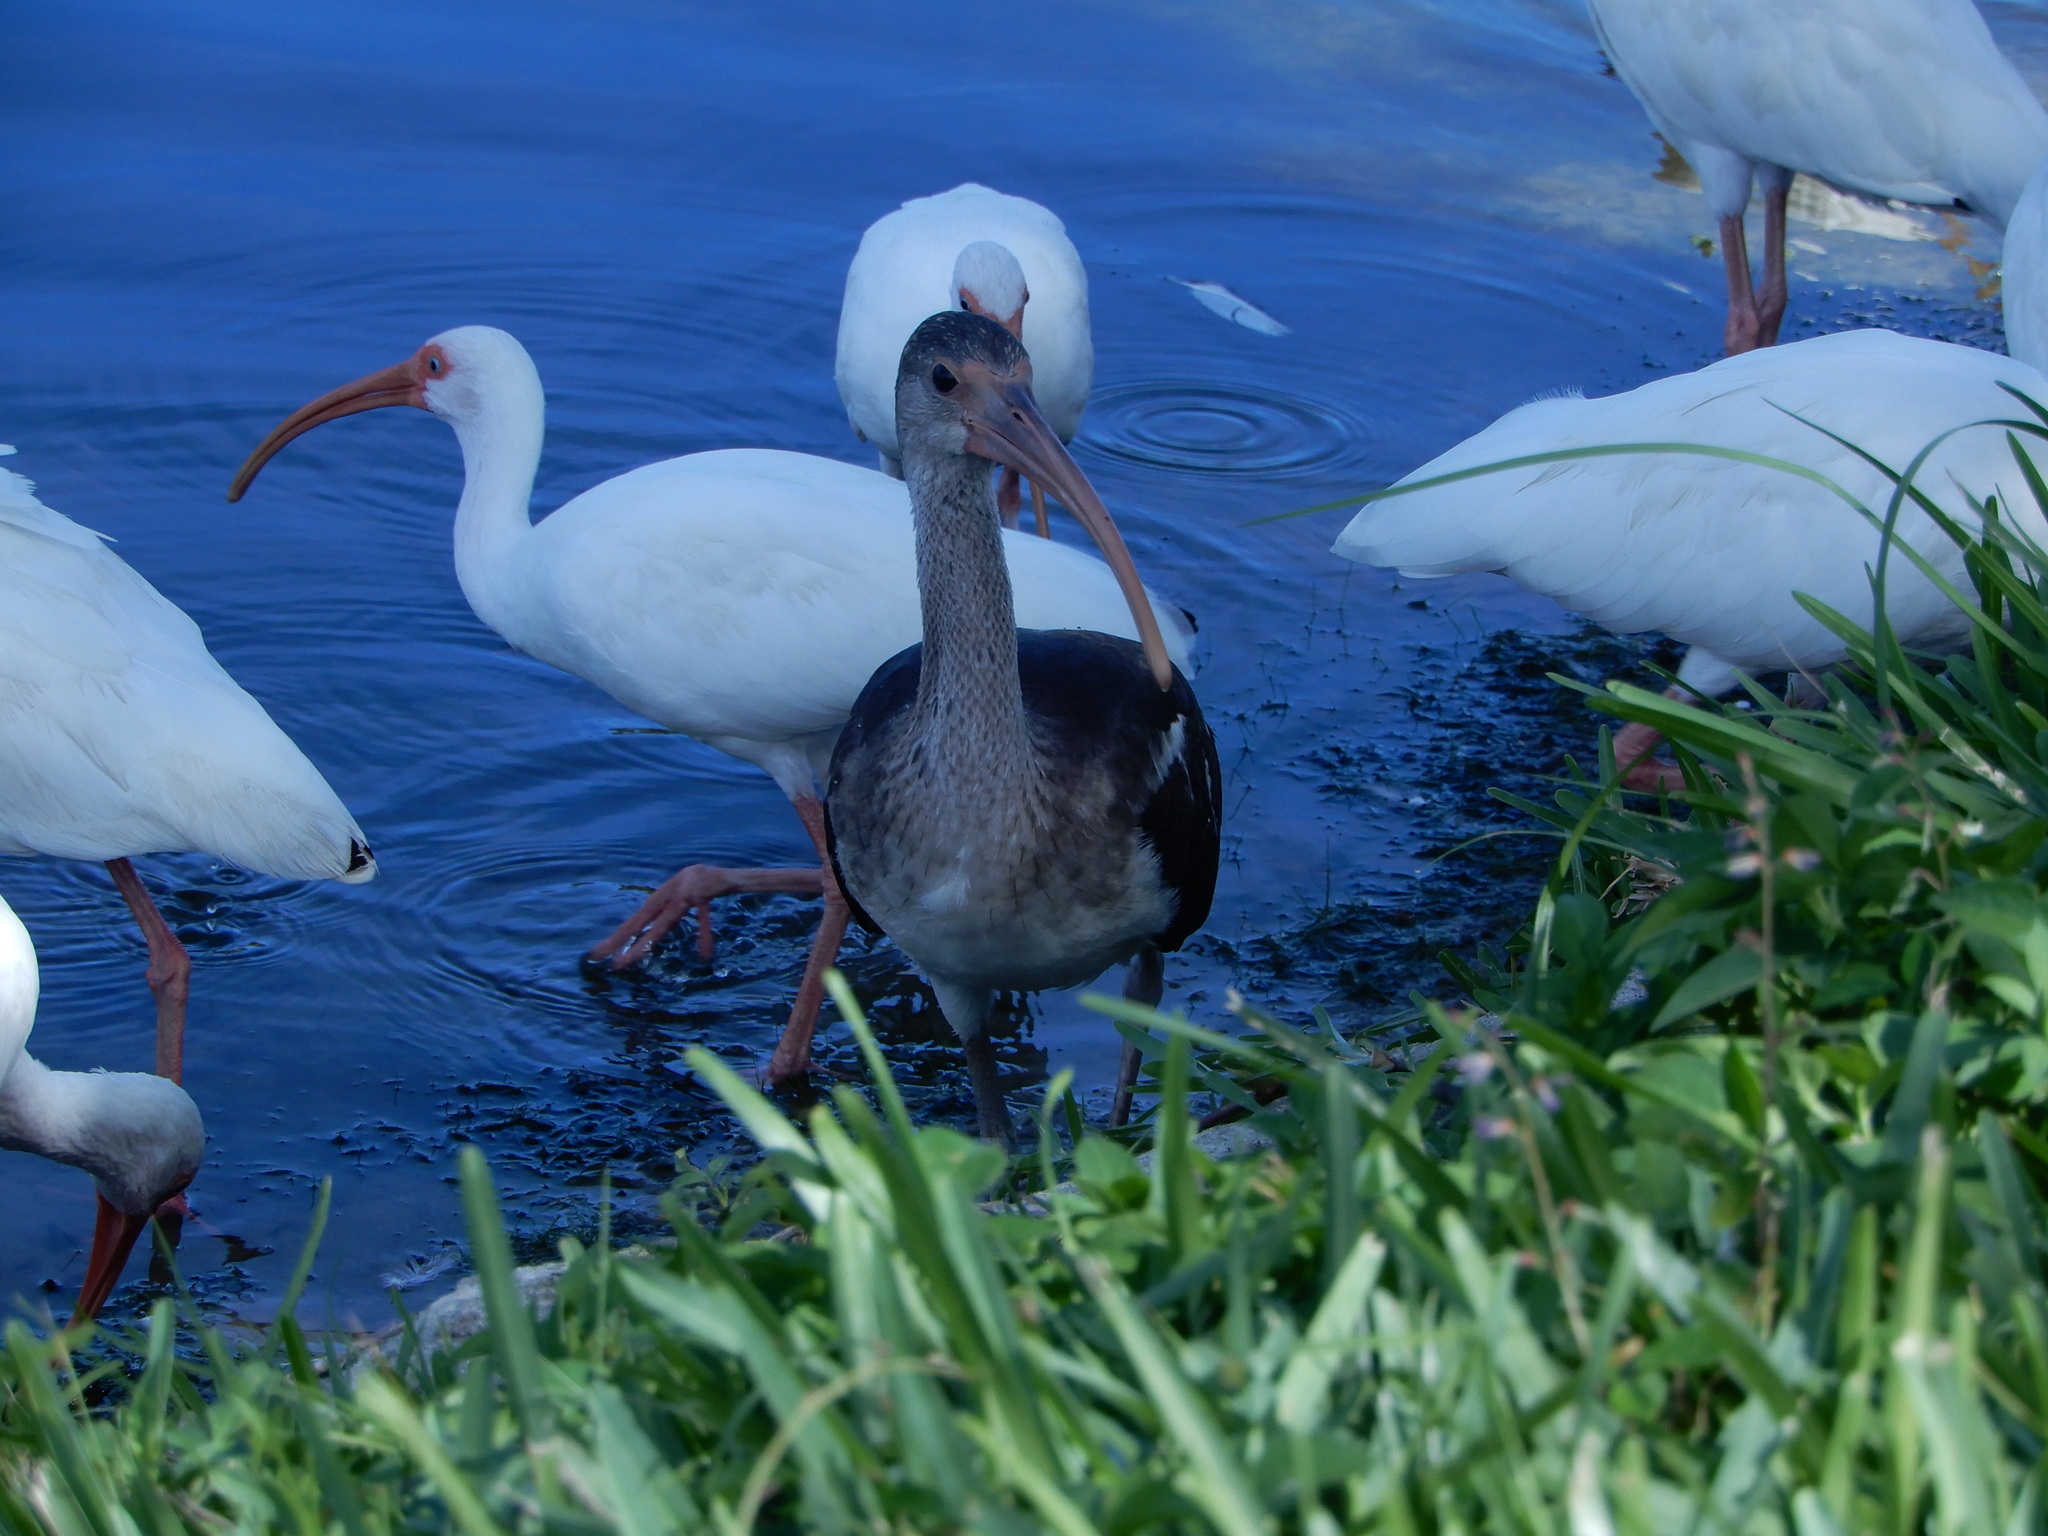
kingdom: Animalia
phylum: Chordata
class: Aves
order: Pelecaniformes
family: Threskiornithidae
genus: Eudocimus
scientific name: Eudocimus albus
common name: White ibis
